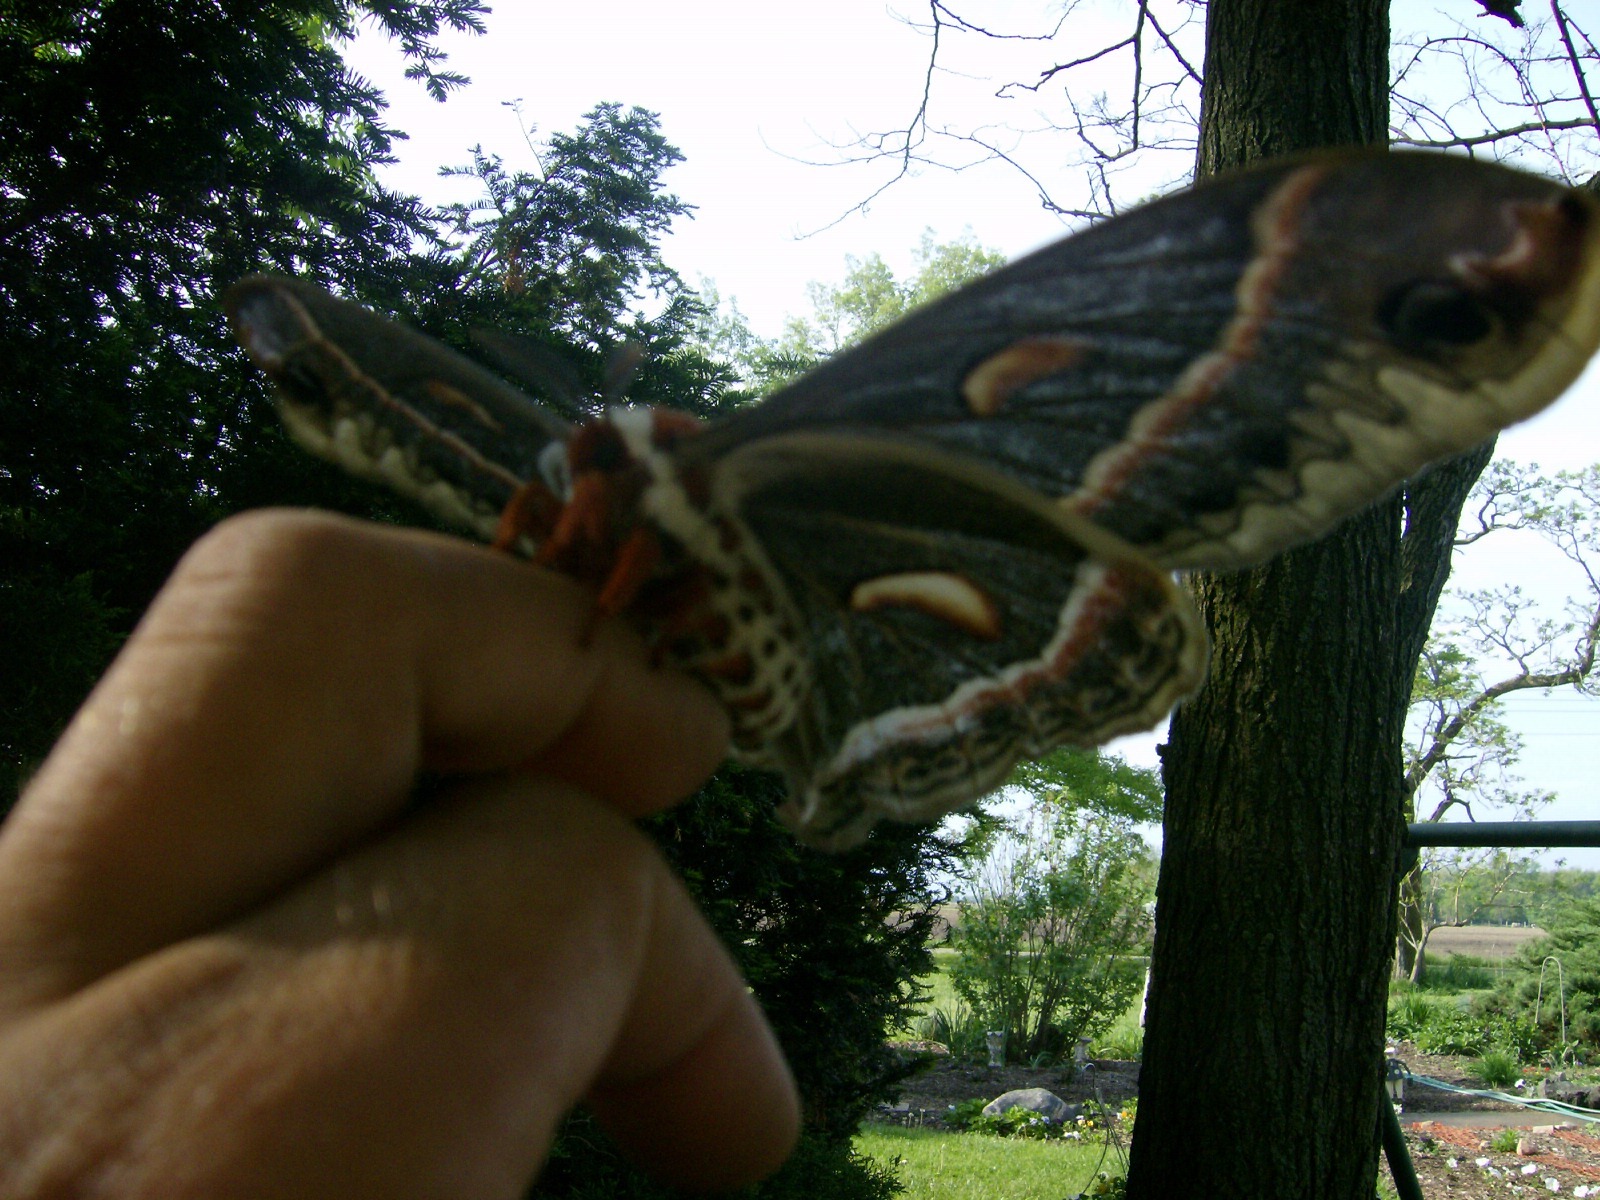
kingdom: Animalia
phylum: Arthropoda
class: Insecta
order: Lepidoptera
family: Saturniidae
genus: Hyalophora
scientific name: Hyalophora cecropia
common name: Cecropia silkmoth
